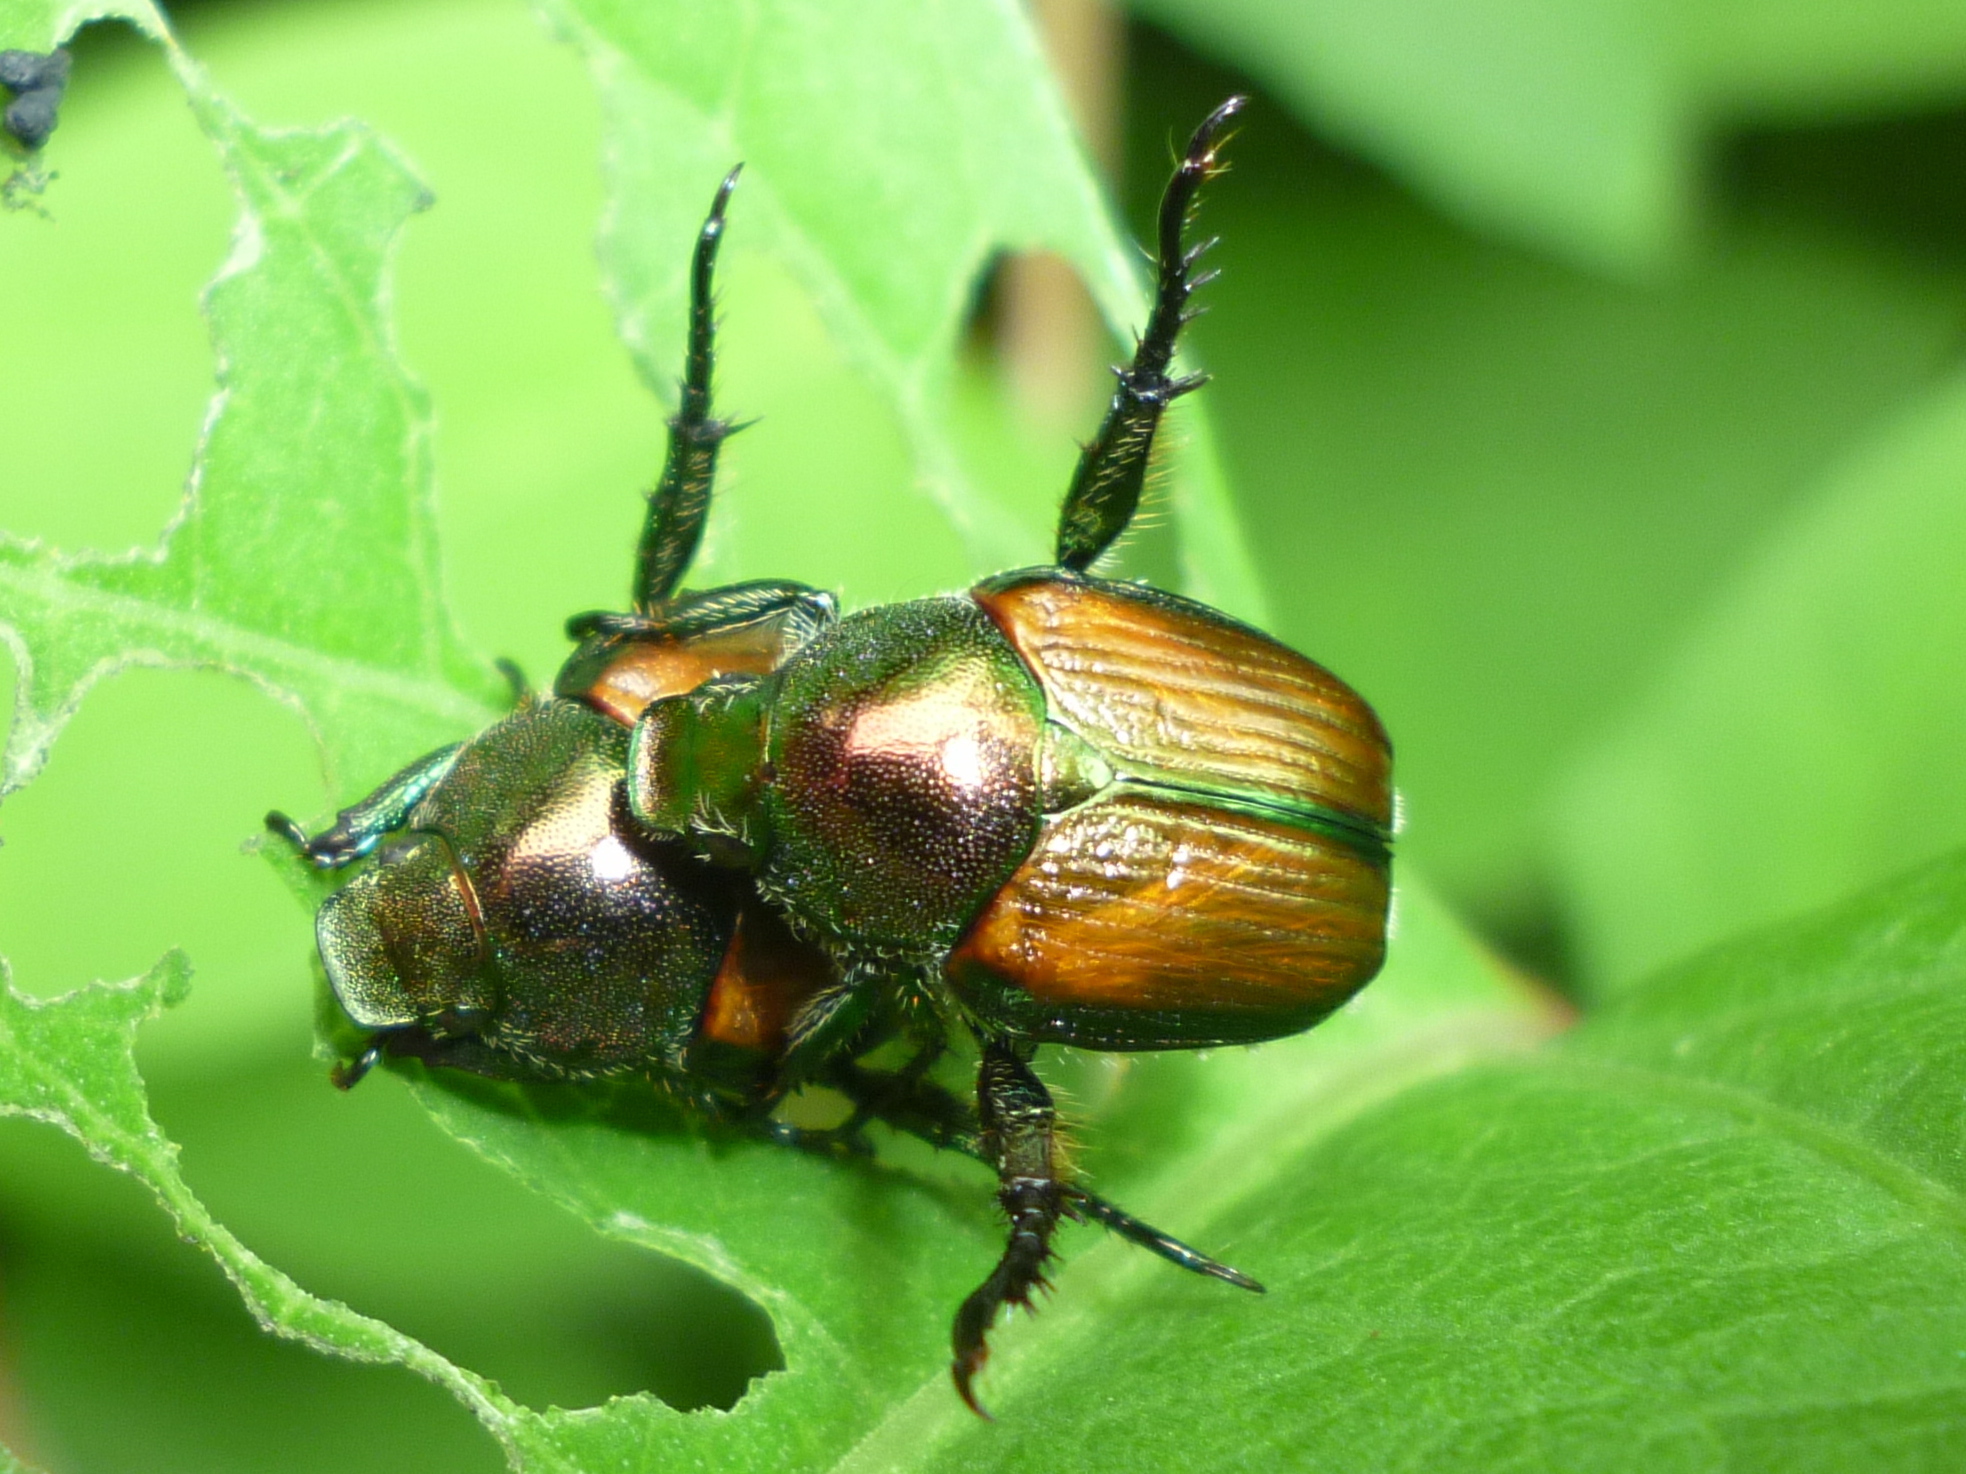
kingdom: Animalia
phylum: Arthropoda
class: Insecta
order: Coleoptera
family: Scarabaeidae
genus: Popillia
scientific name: Popillia japonica
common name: Japanese beetle
